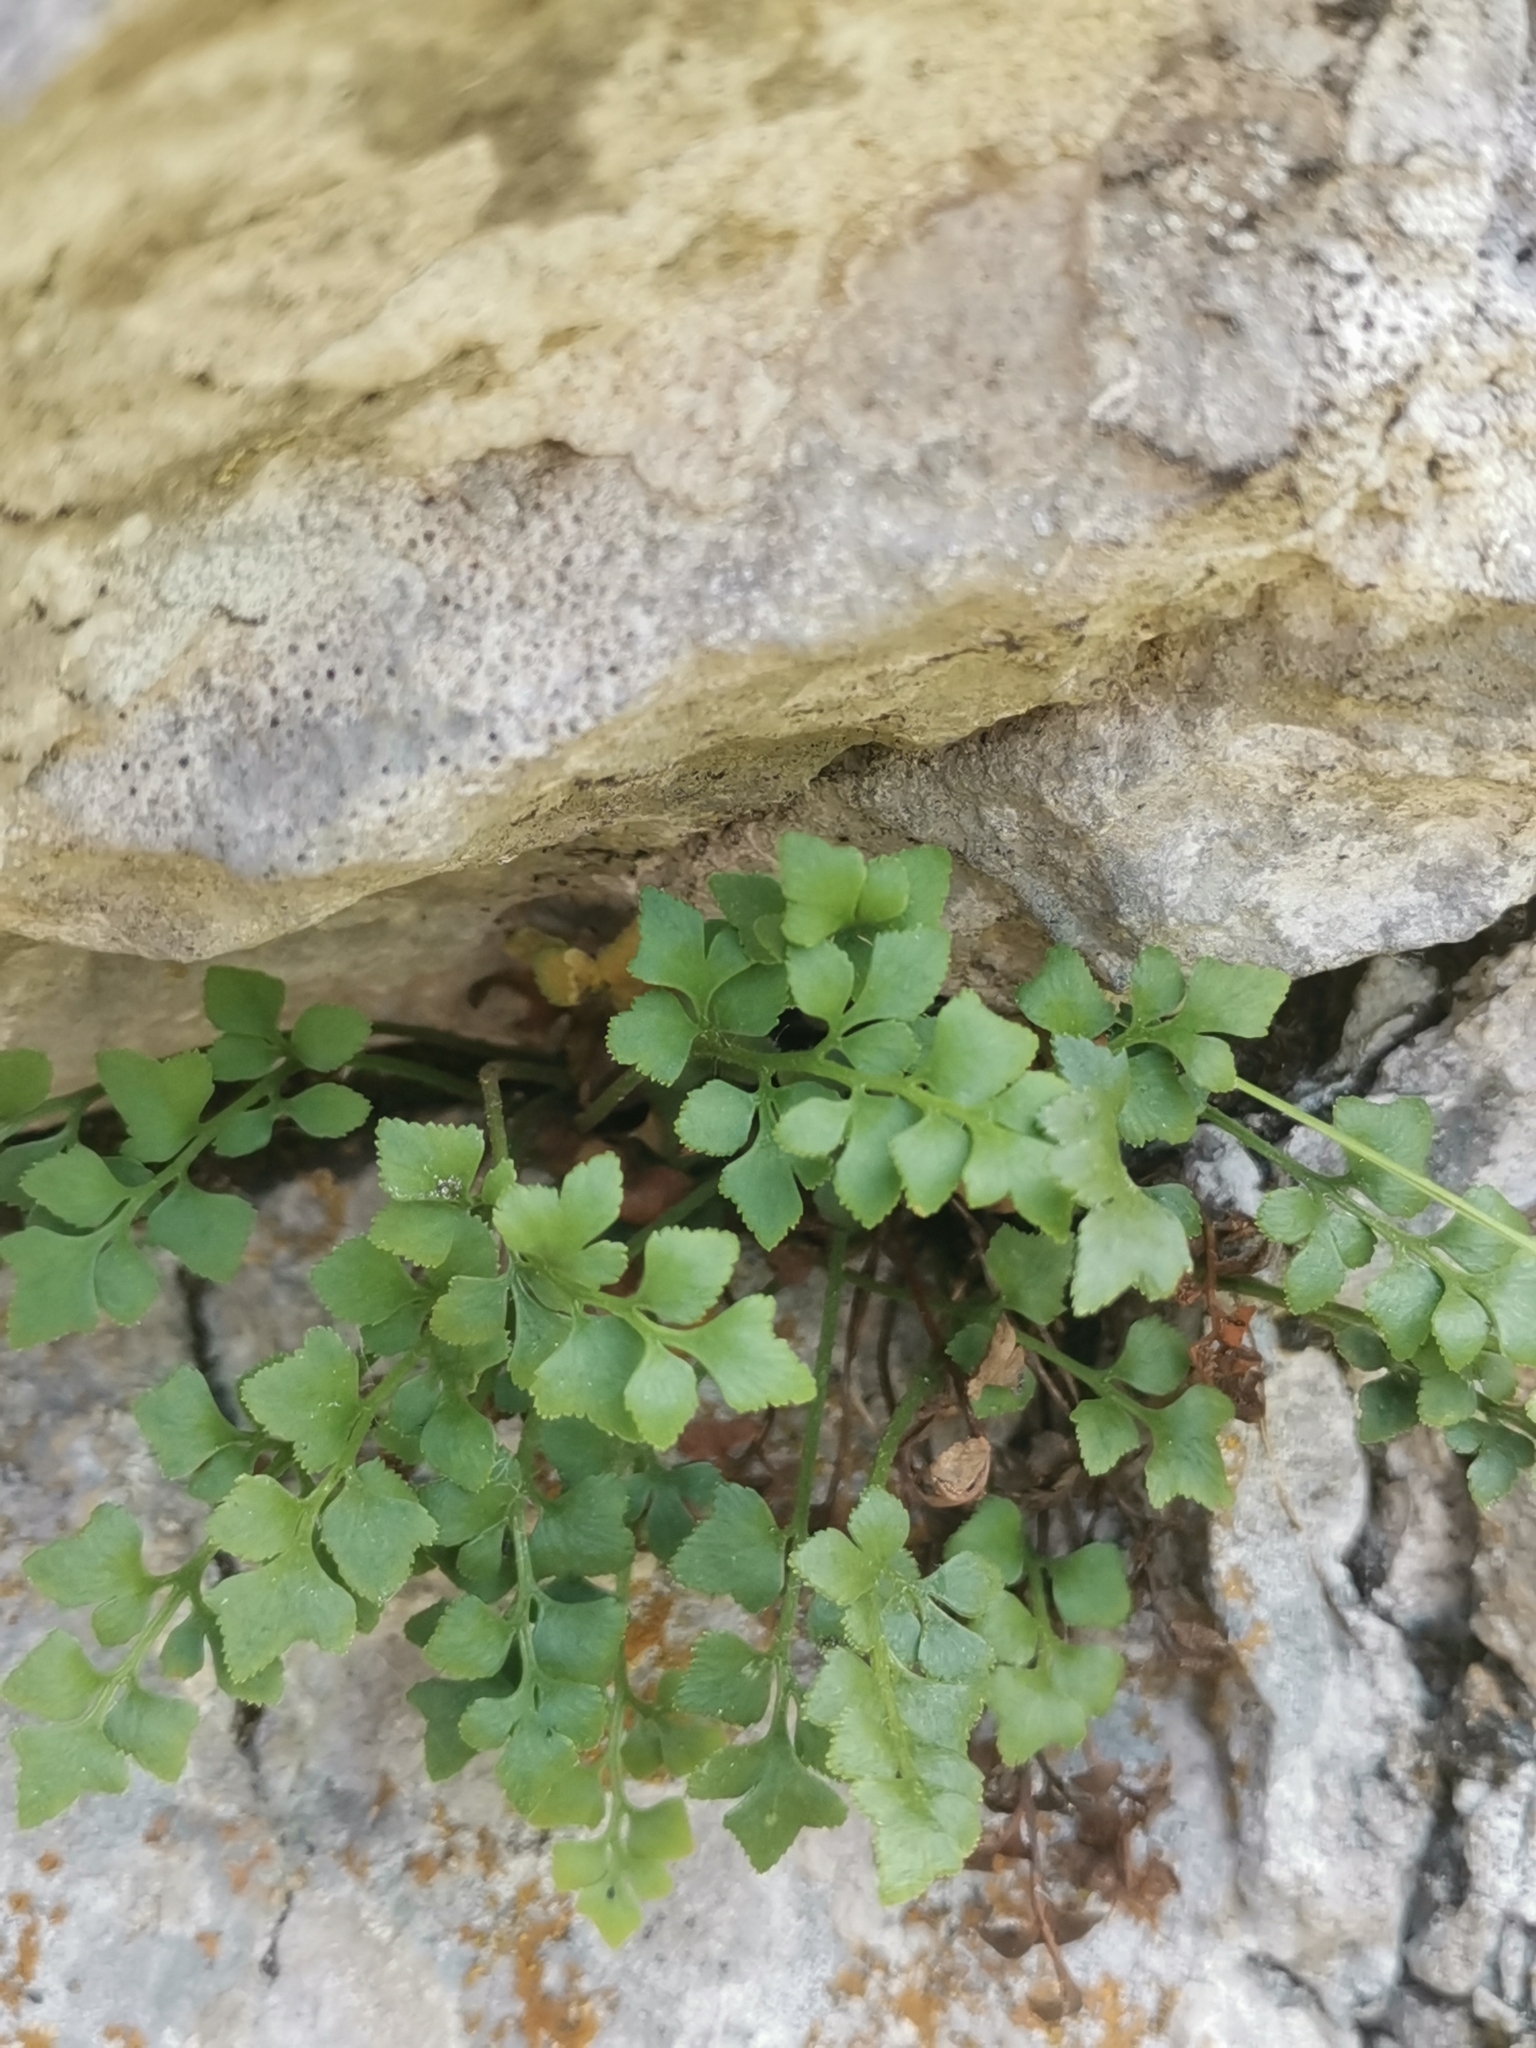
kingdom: Plantae
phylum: Tracheophyta
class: Polypodiopsida
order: Polypodiales
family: Aspleniaceae
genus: Asplenium
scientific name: Asplenium ruta-muraria
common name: Wall-rue
